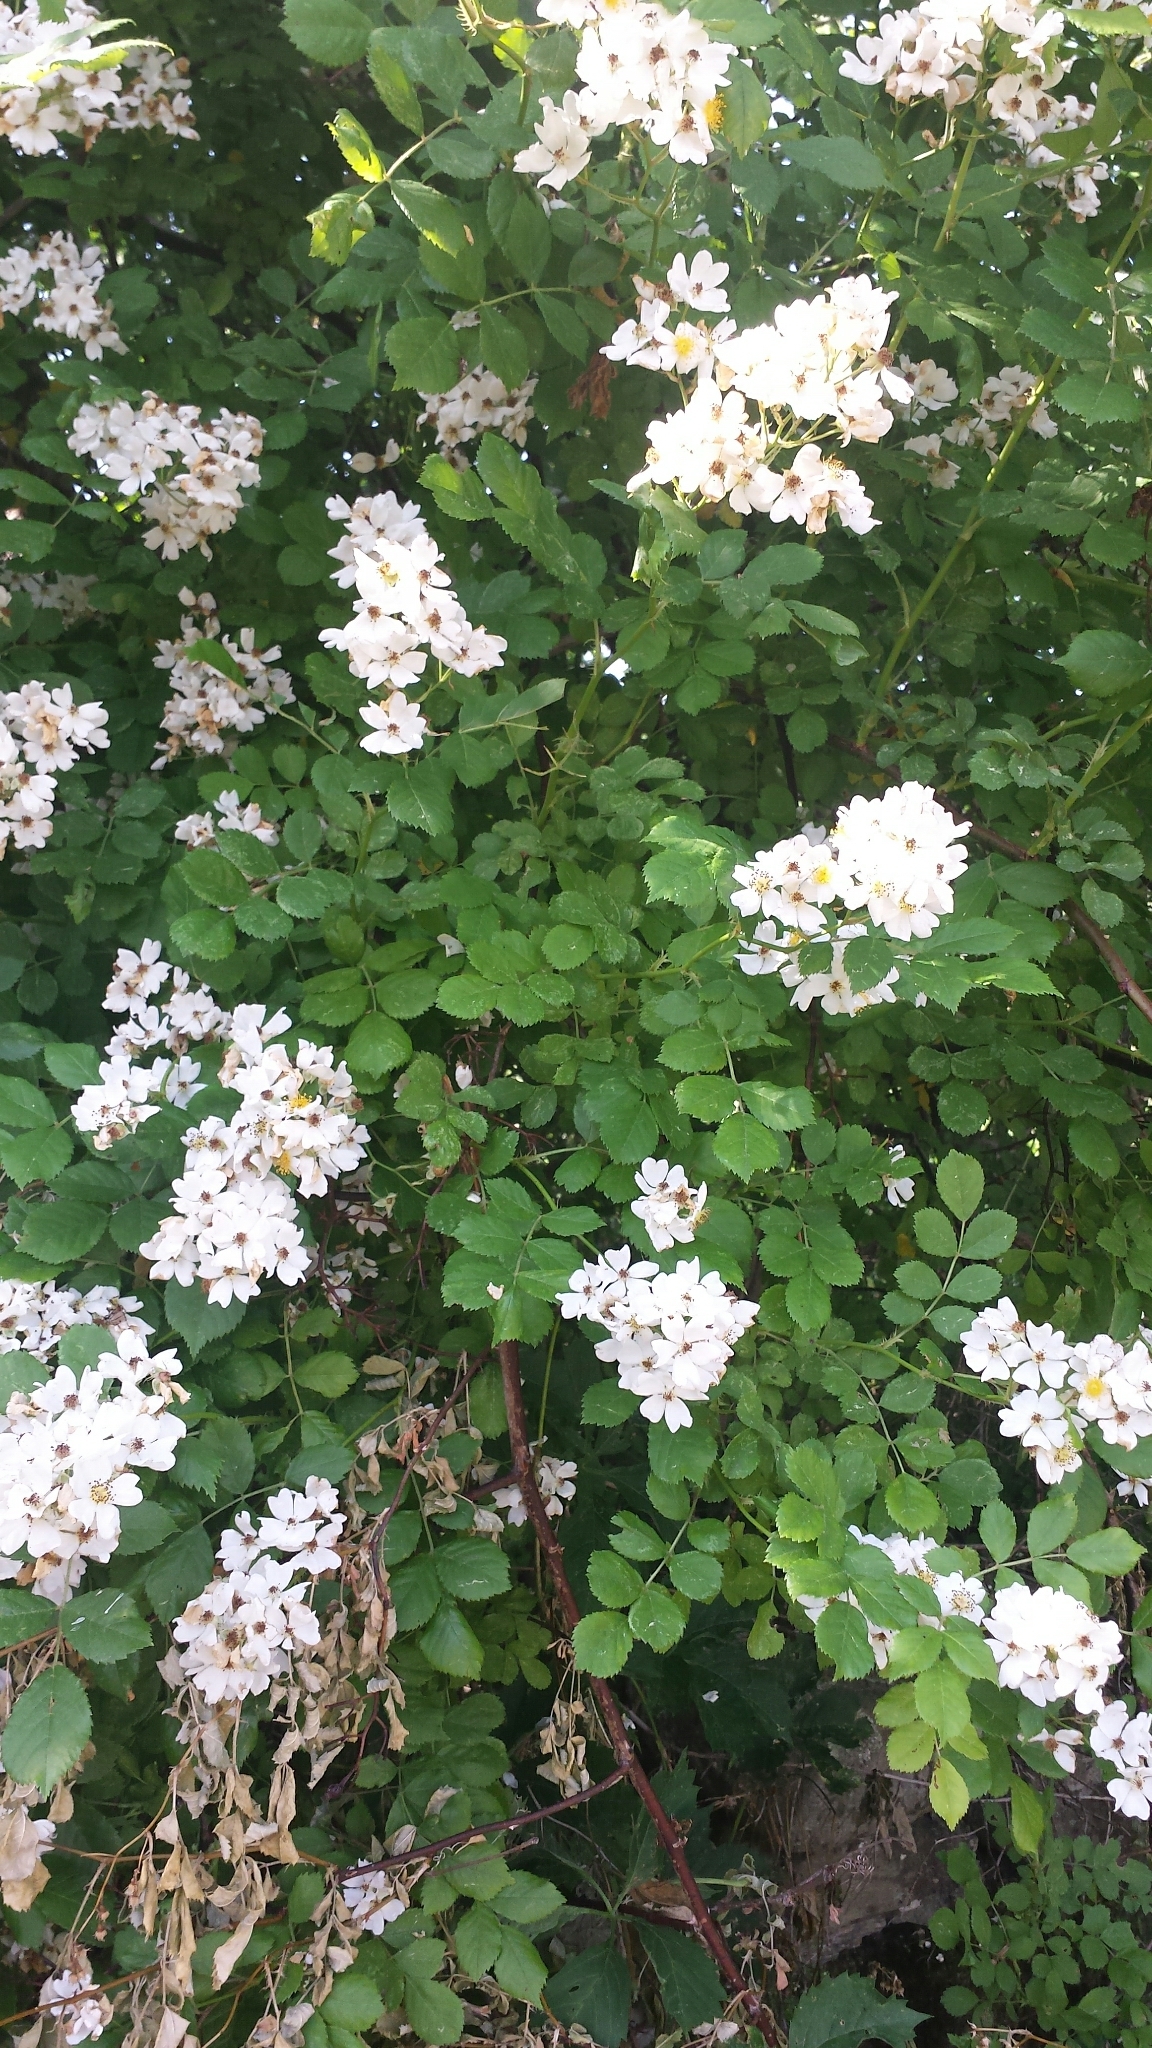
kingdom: Plantae
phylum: Tracheophyta
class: Magnoliopsida
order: Rosales
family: Rosaceae
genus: Rosa
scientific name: Rosa multiflora
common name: Multiflora rose
